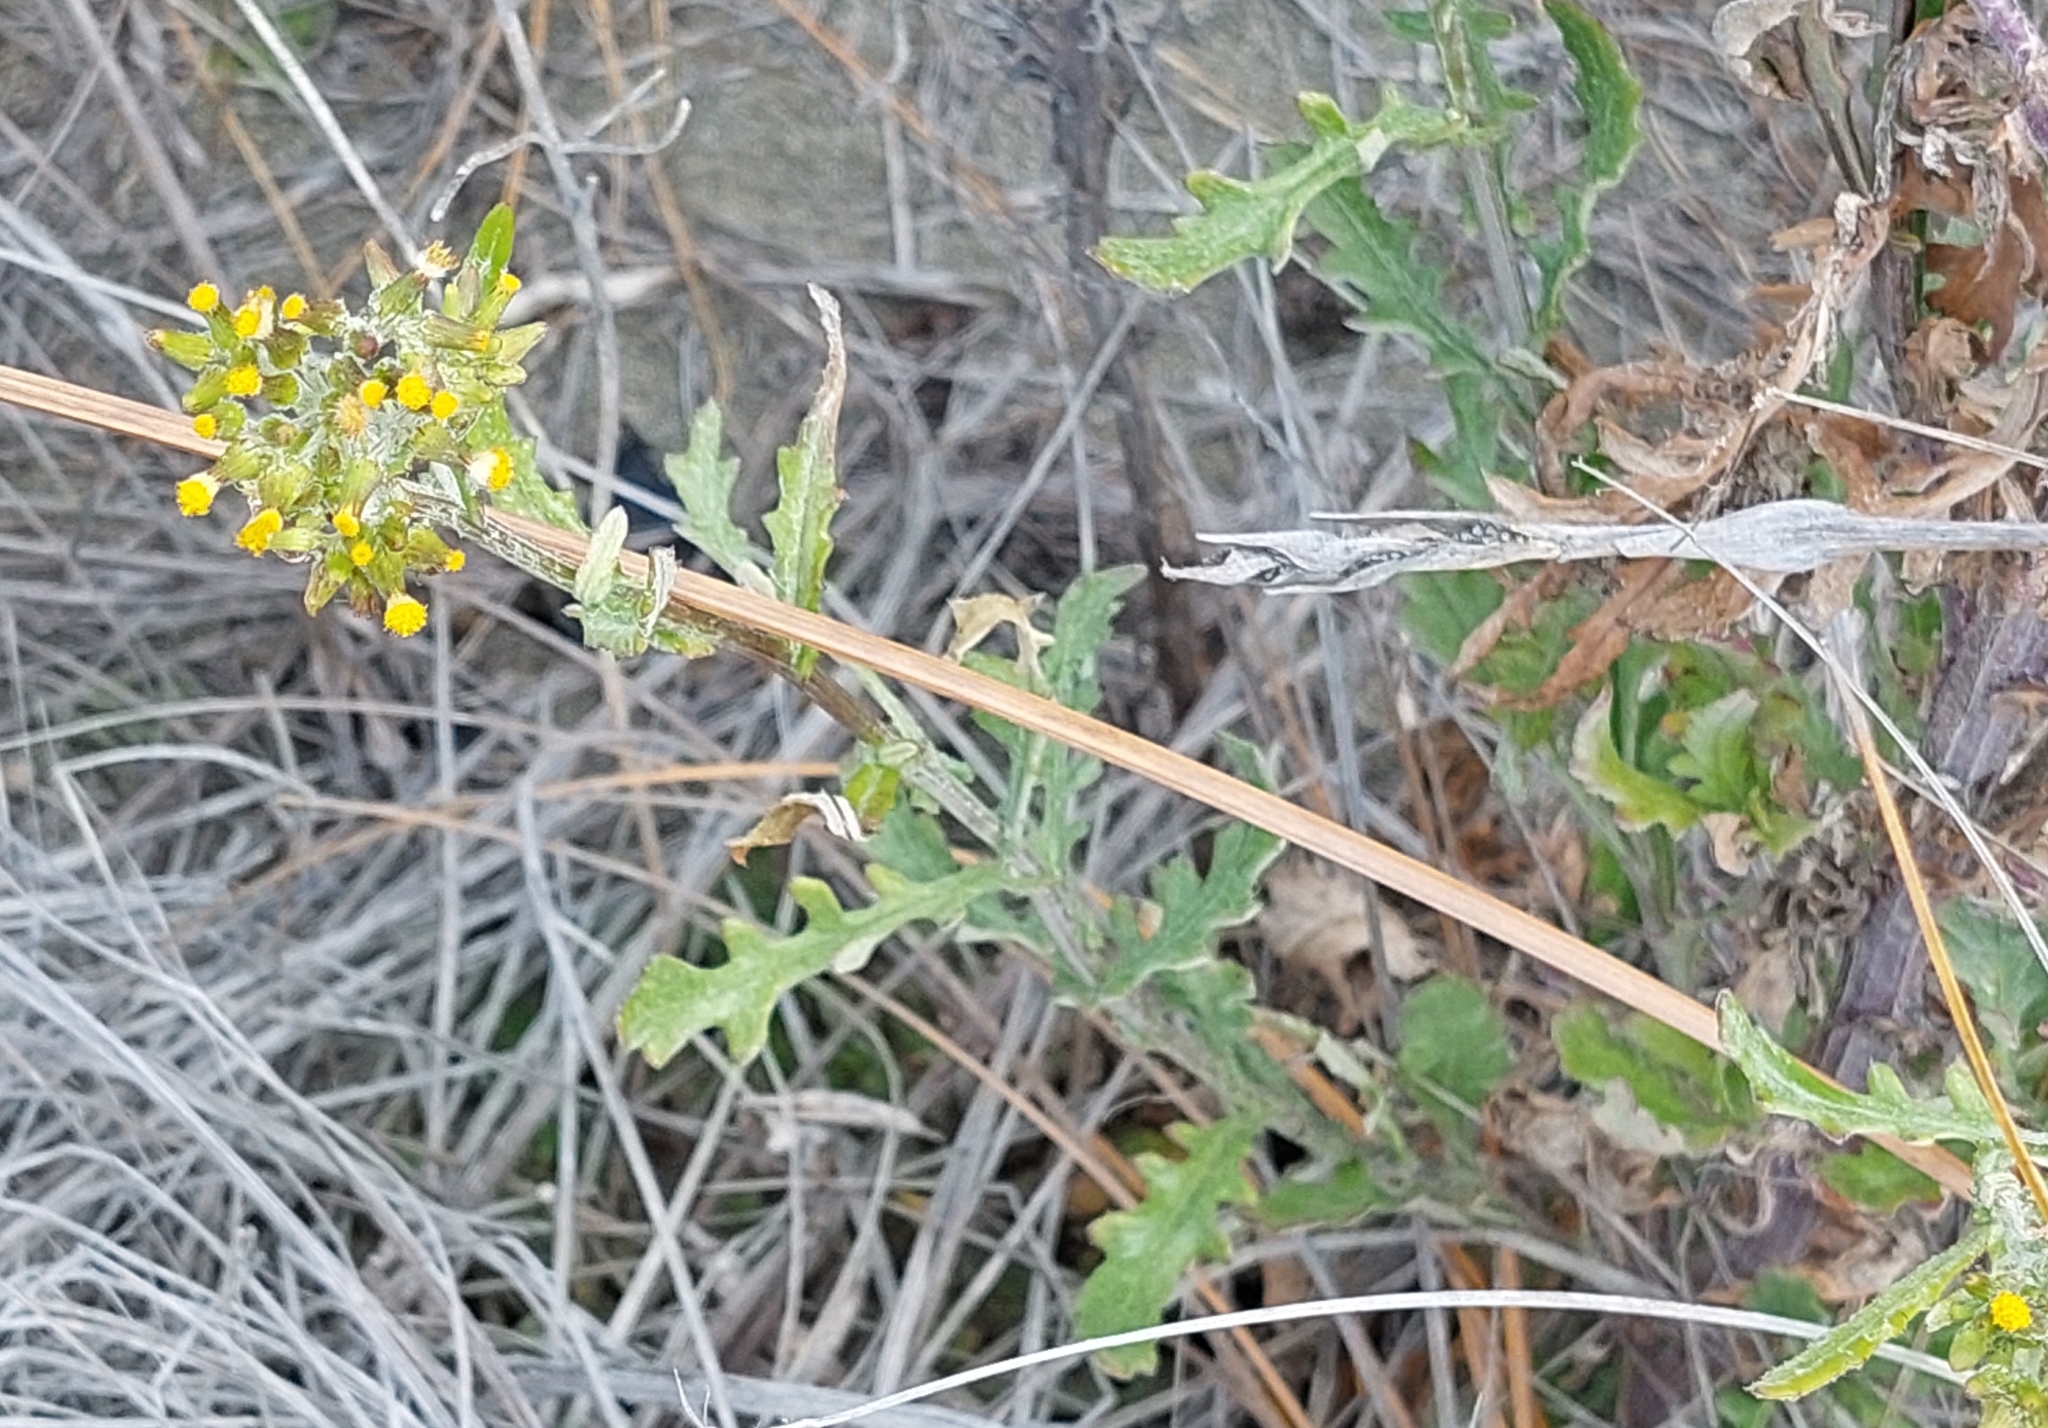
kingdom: Plantae
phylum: Tracheophyta
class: Magnoliopsida
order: Asterales
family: Asteraceae
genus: Senecio
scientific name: Senecio glomeratus
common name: Cutleaf burnweed
